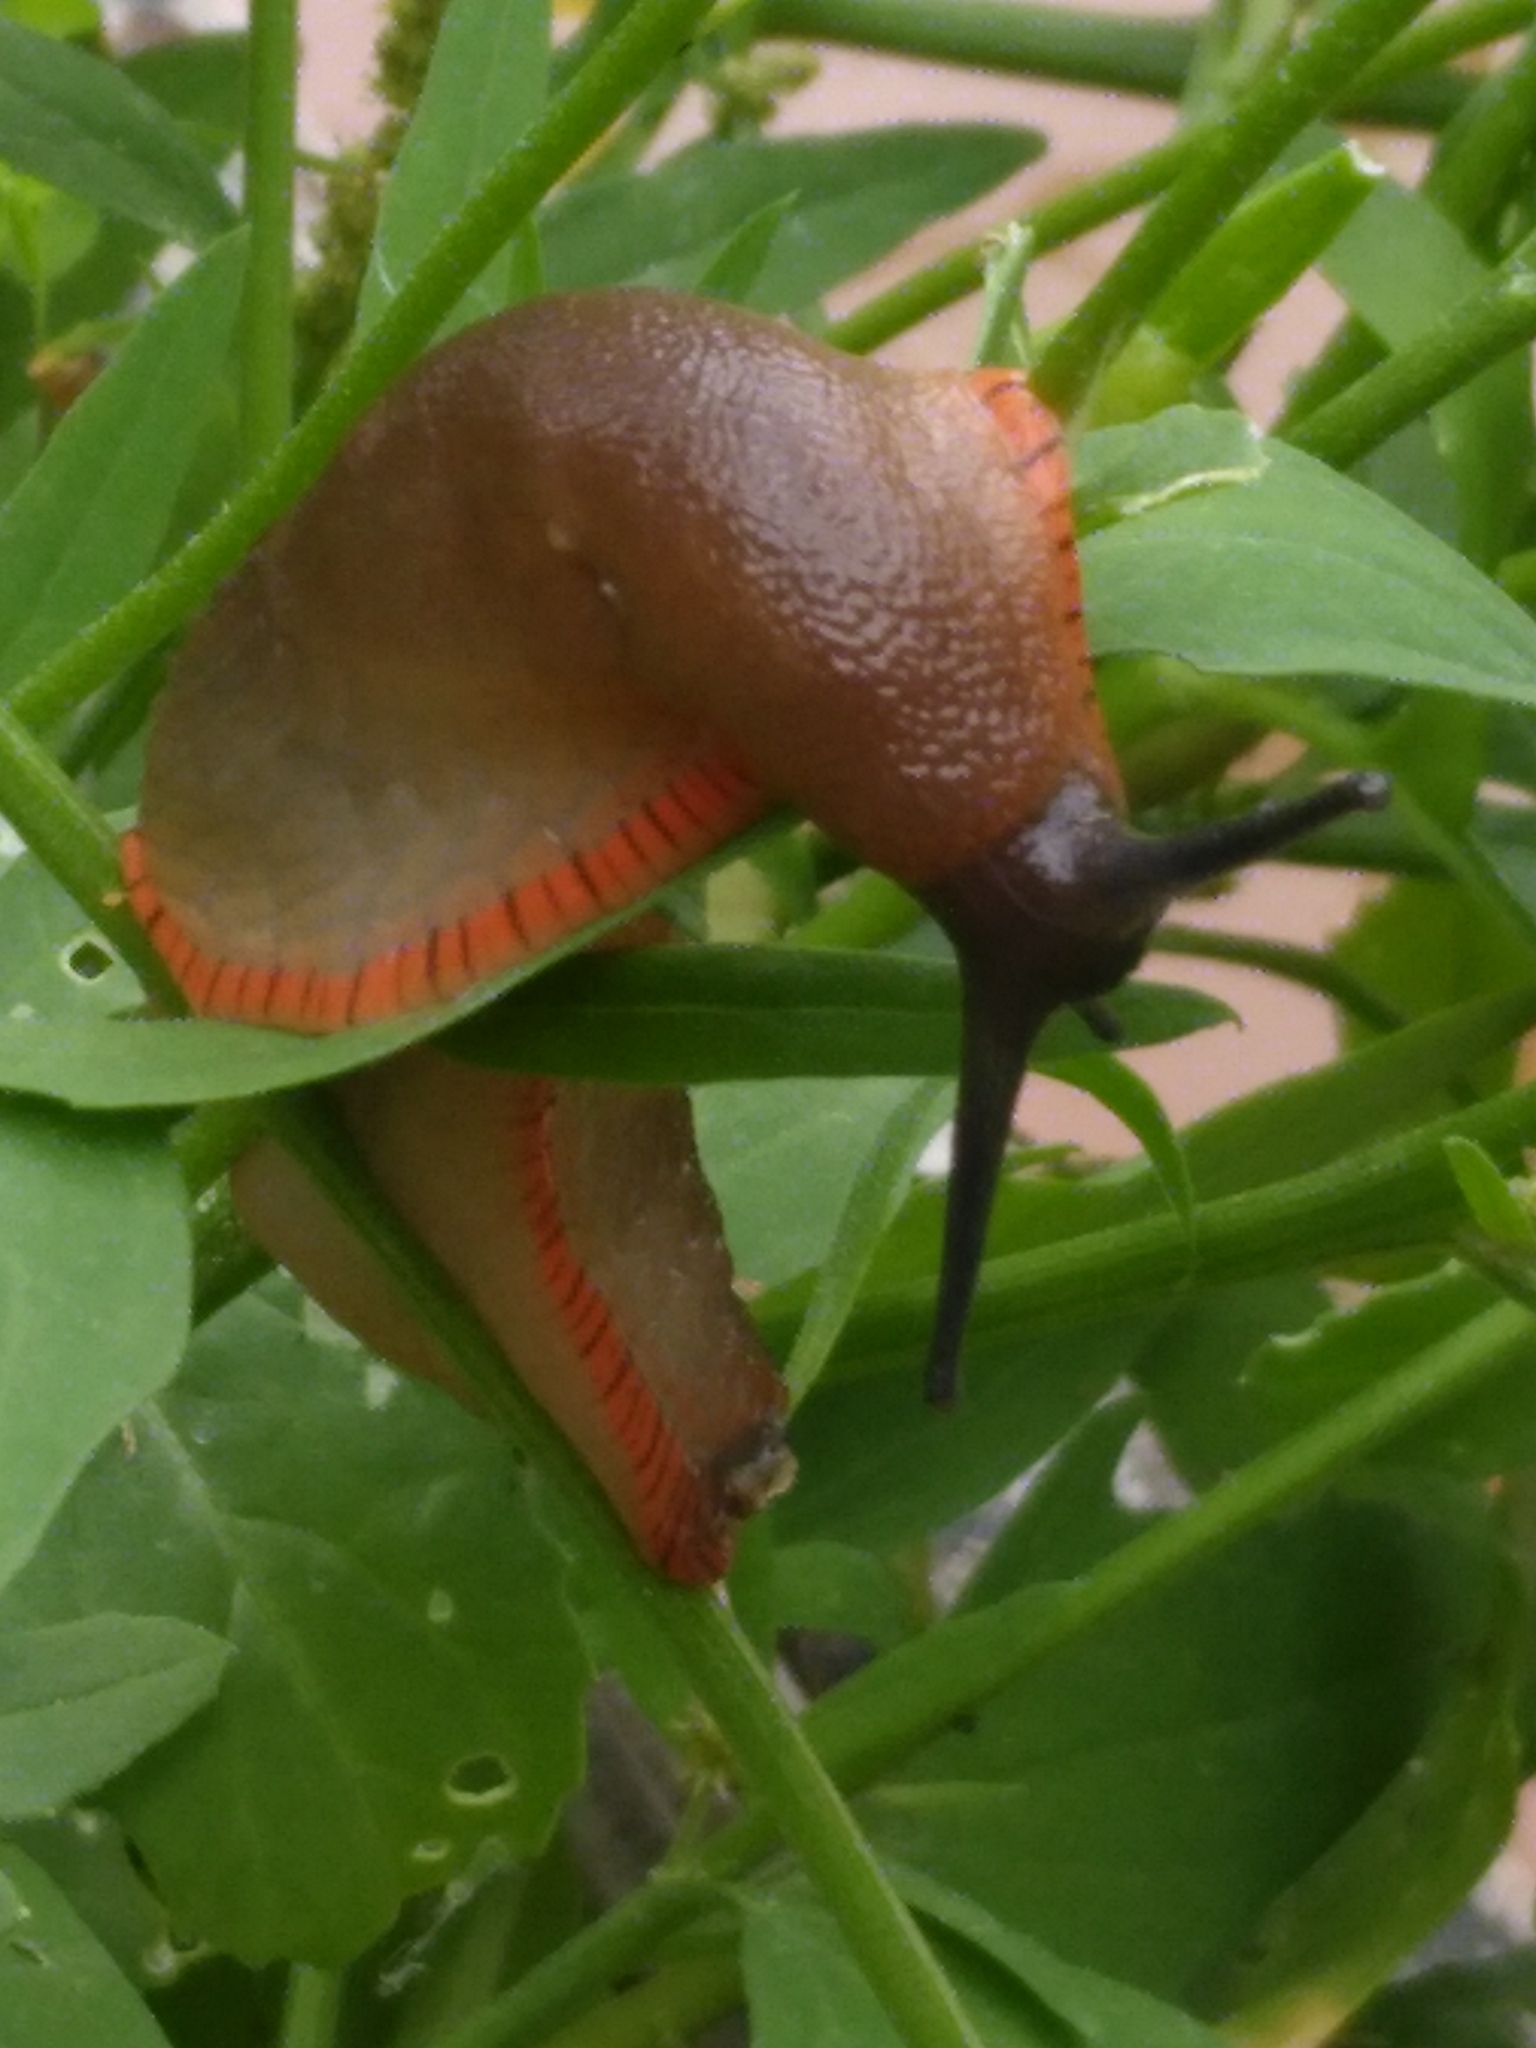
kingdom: Animalia
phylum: Mollusca
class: Gastropoda
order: Stylommatophora
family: Arionidae
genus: Arion
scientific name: Arion rufus
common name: Chocolate arion
